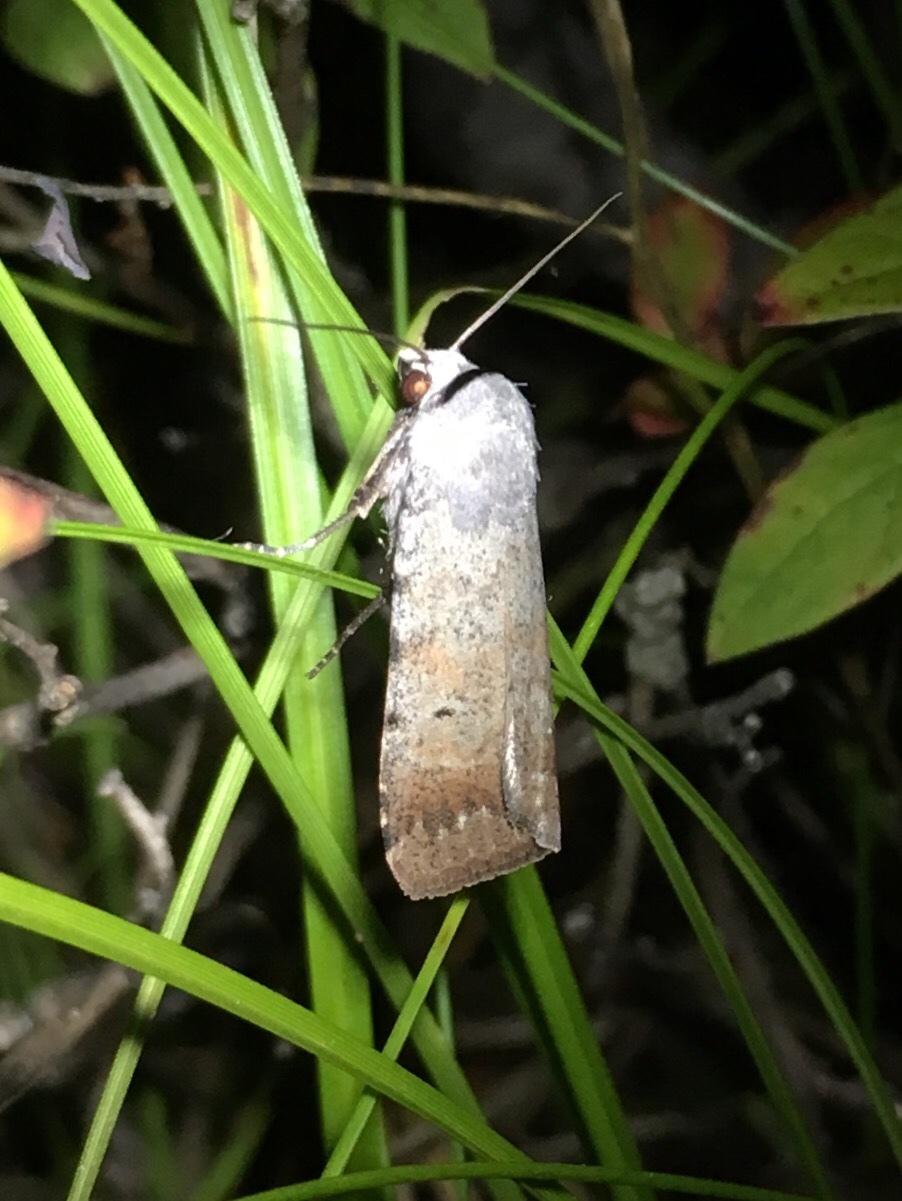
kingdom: Animalia
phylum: Arthropoda
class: Insecta
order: Lepidoptera
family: Noctuidae
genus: Anicla
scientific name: Anicla illapsa
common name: Snowy dart
